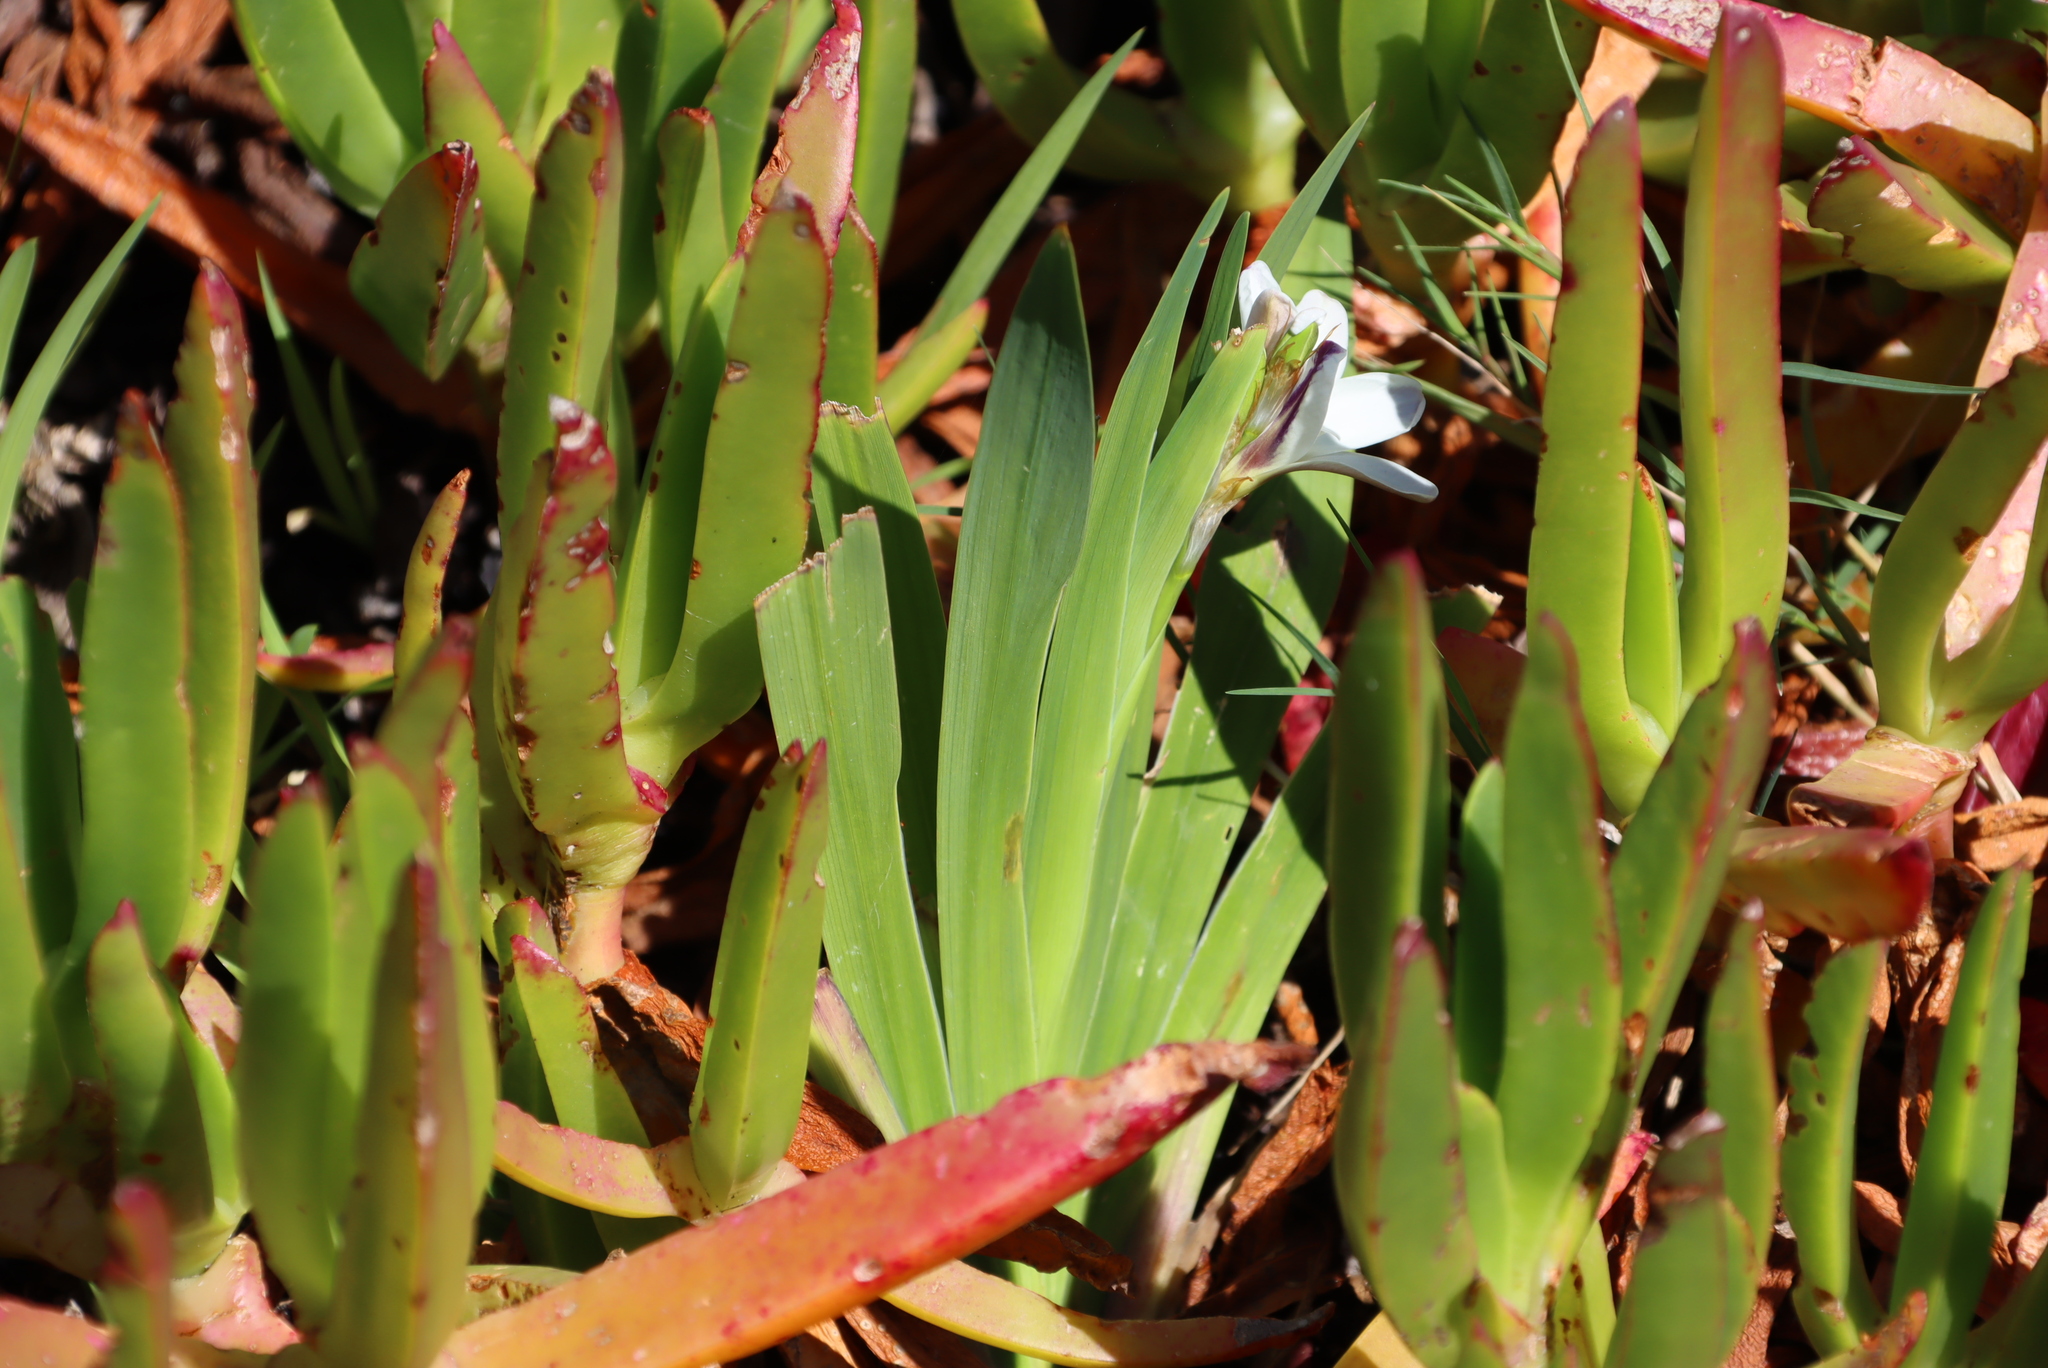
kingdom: Plantae
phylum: Tracheophyta
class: Liliopsida
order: Asparagales
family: Iridaceae
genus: Sparaxis
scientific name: Sparaxis bulbifera
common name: Harlequin-flower
